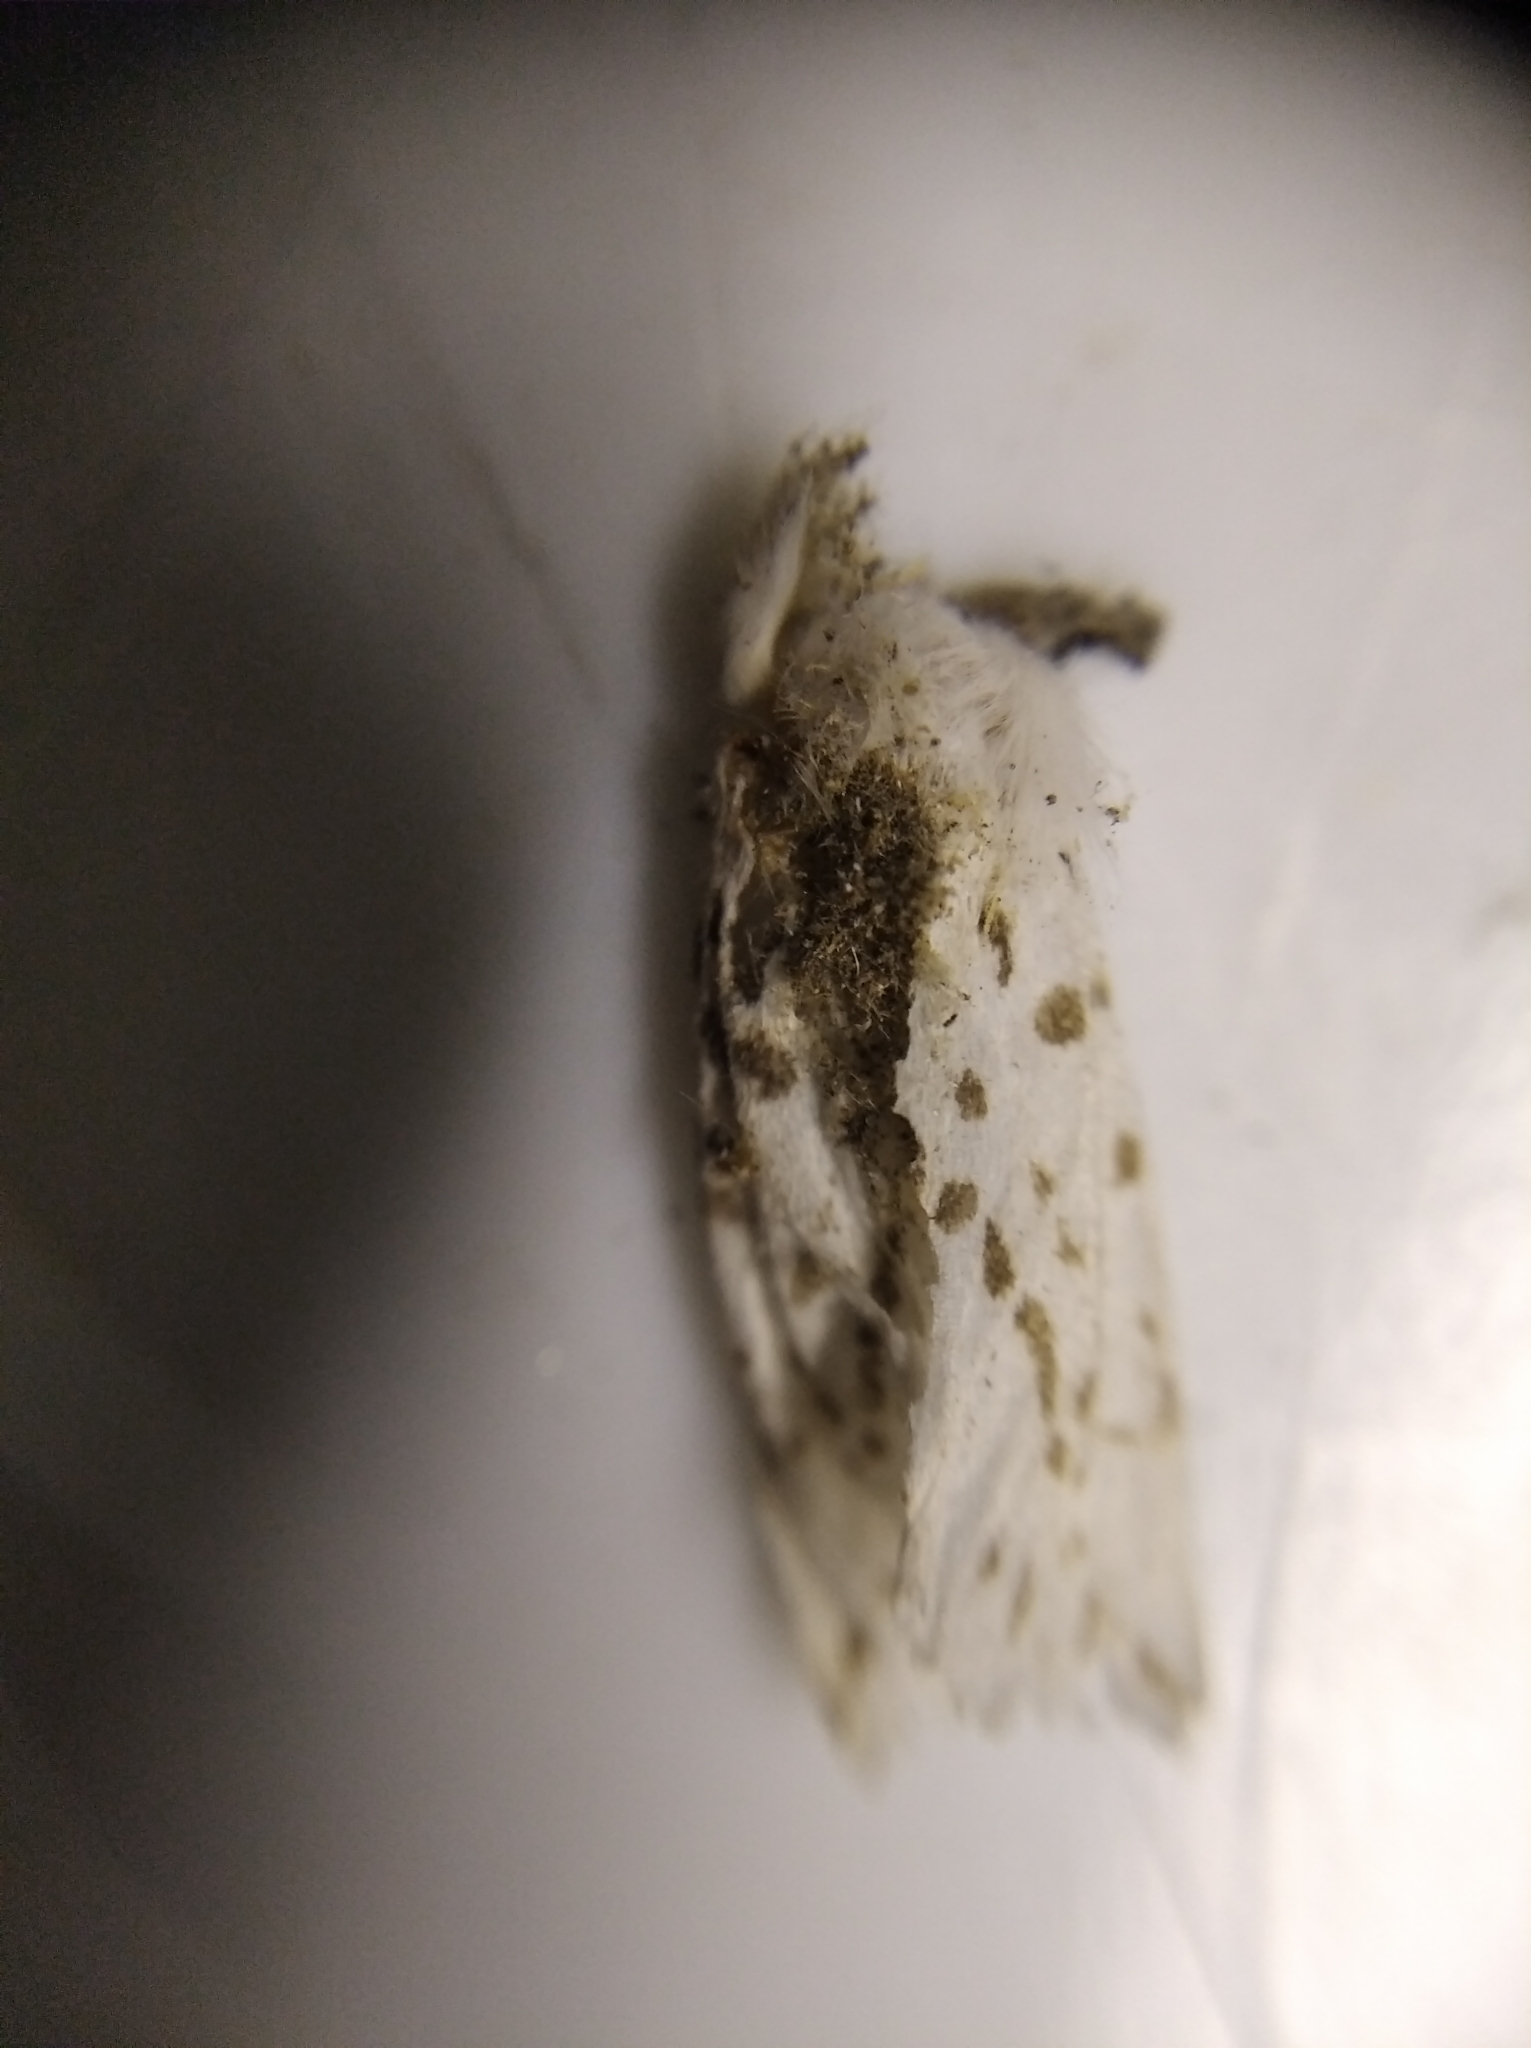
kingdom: Animalia
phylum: Arthropoda
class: Insecta
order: Lepidoptera
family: Erebidae
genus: Hyphantria
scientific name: Hyphantria cunea
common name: American white moth
